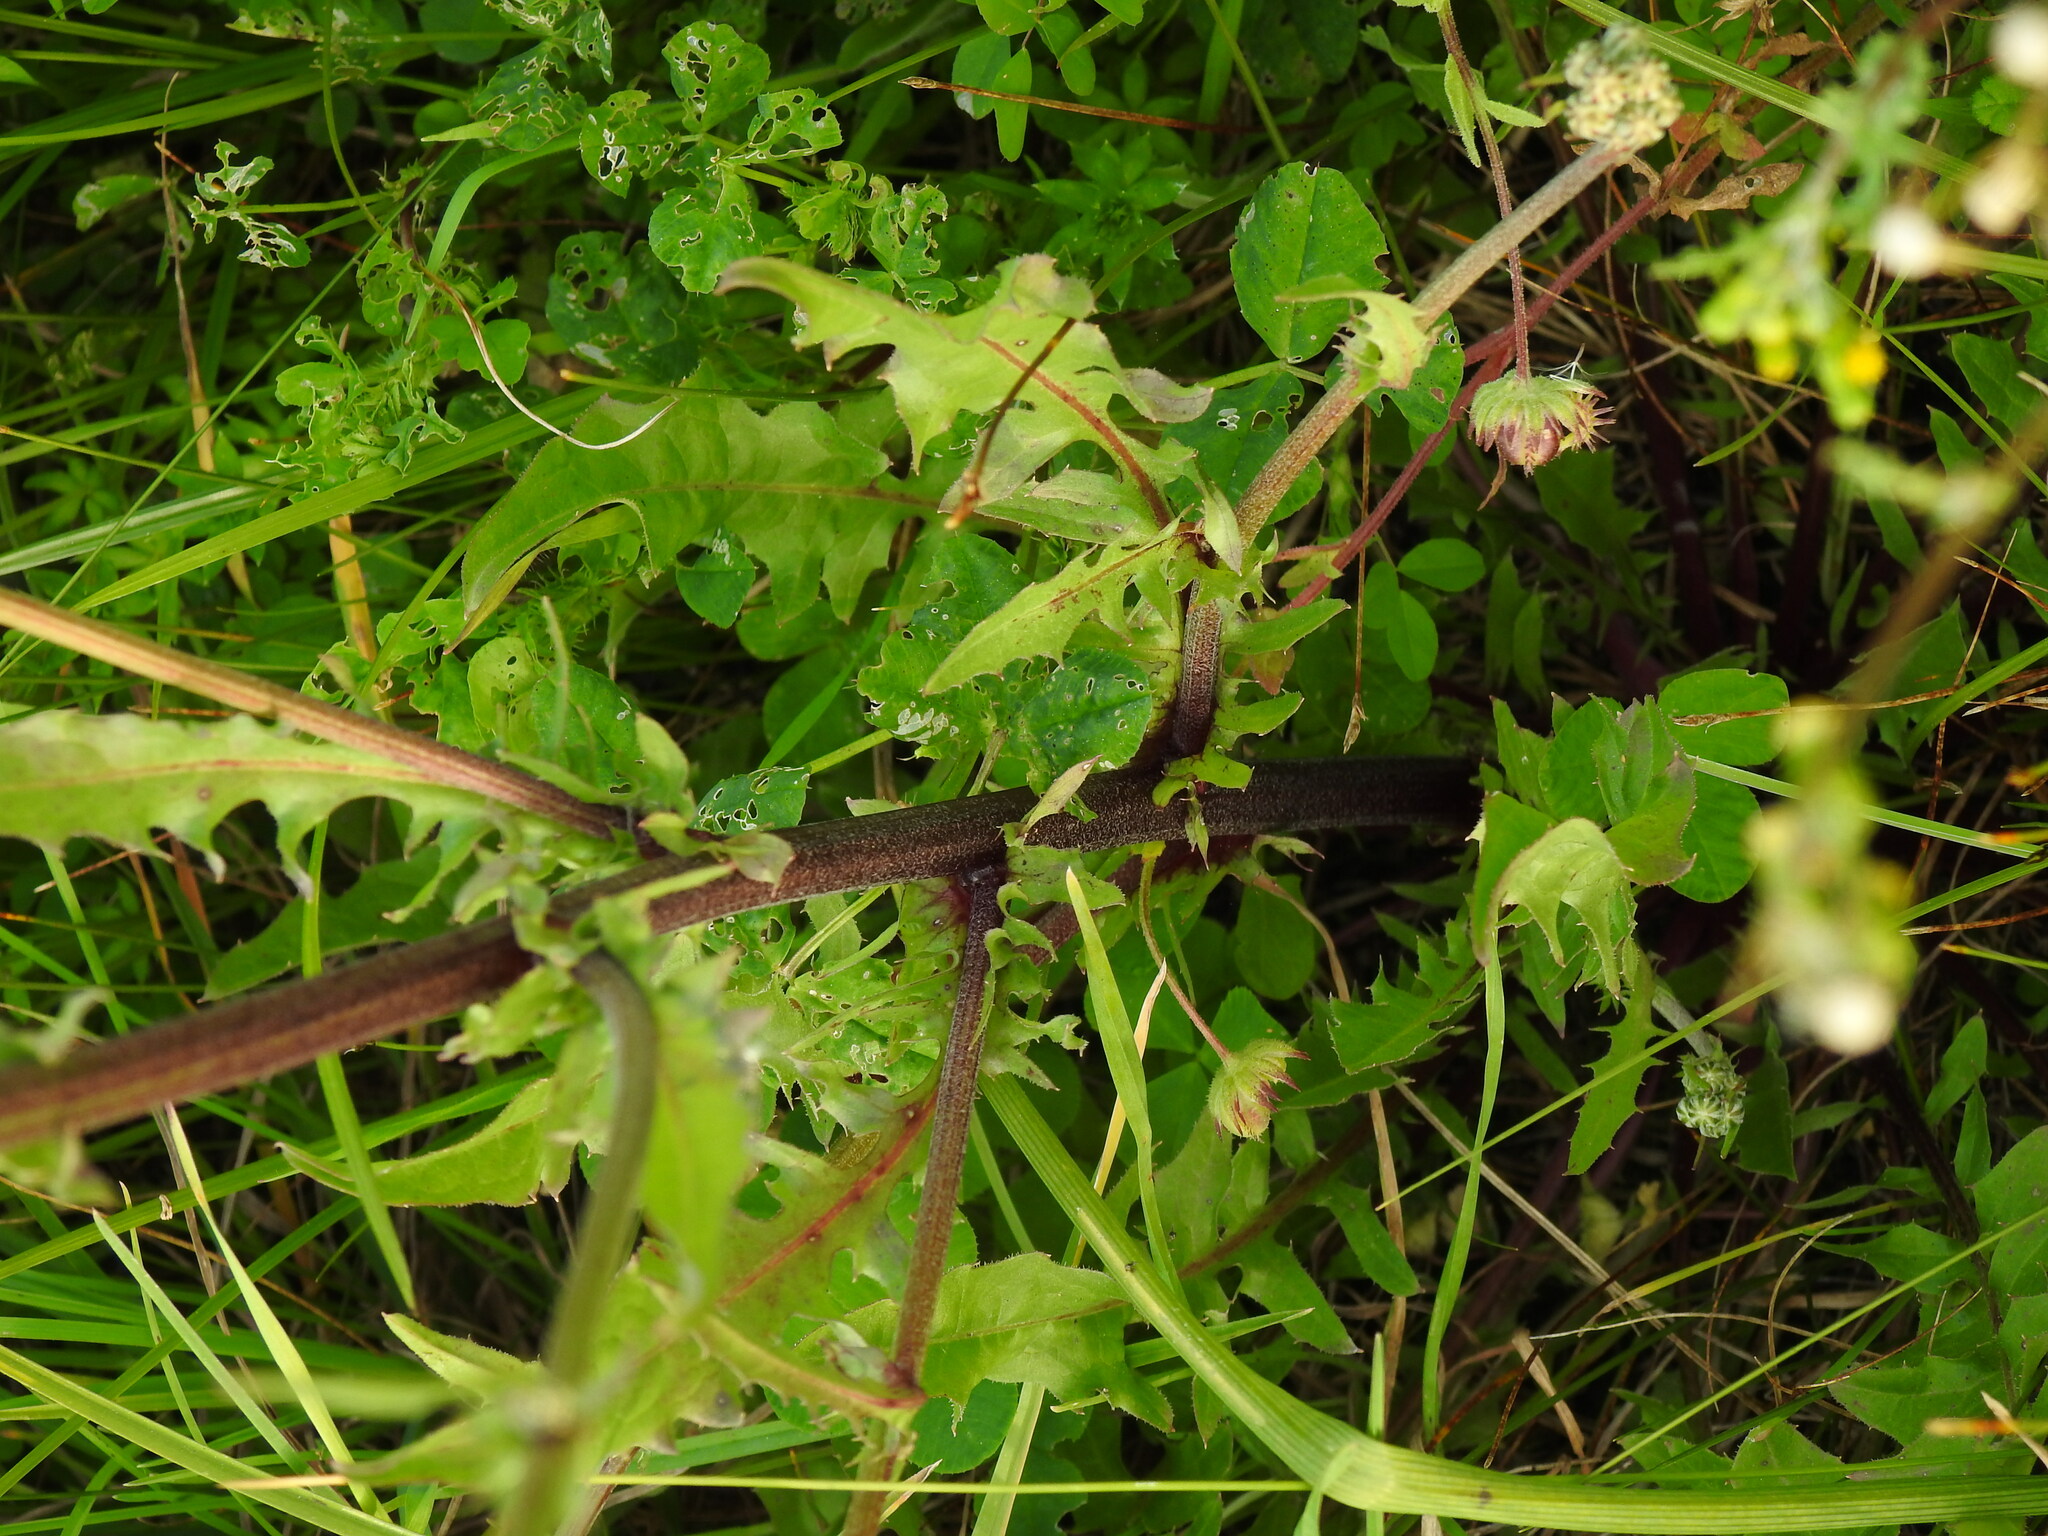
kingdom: Plantae
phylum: Tracheophyta
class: Magnoliopsida
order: Asterales
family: Asteraceae
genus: Crepis
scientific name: Crepis vesicaria
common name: Beaked hawksbeard
